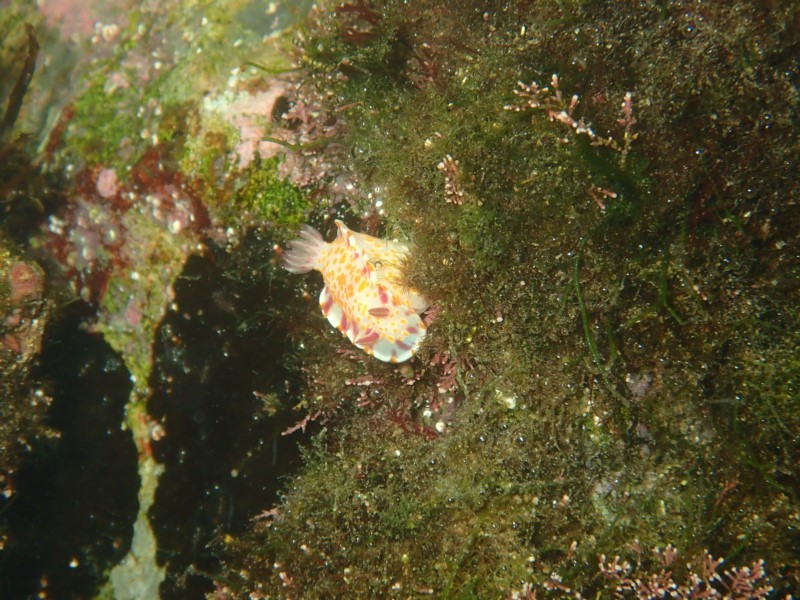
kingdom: Animalia
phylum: Mollusca
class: Gastropoda
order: Nudibranchia
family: Chromodorididae
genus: Ceratosoma
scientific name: Ceratosoma amoenum
